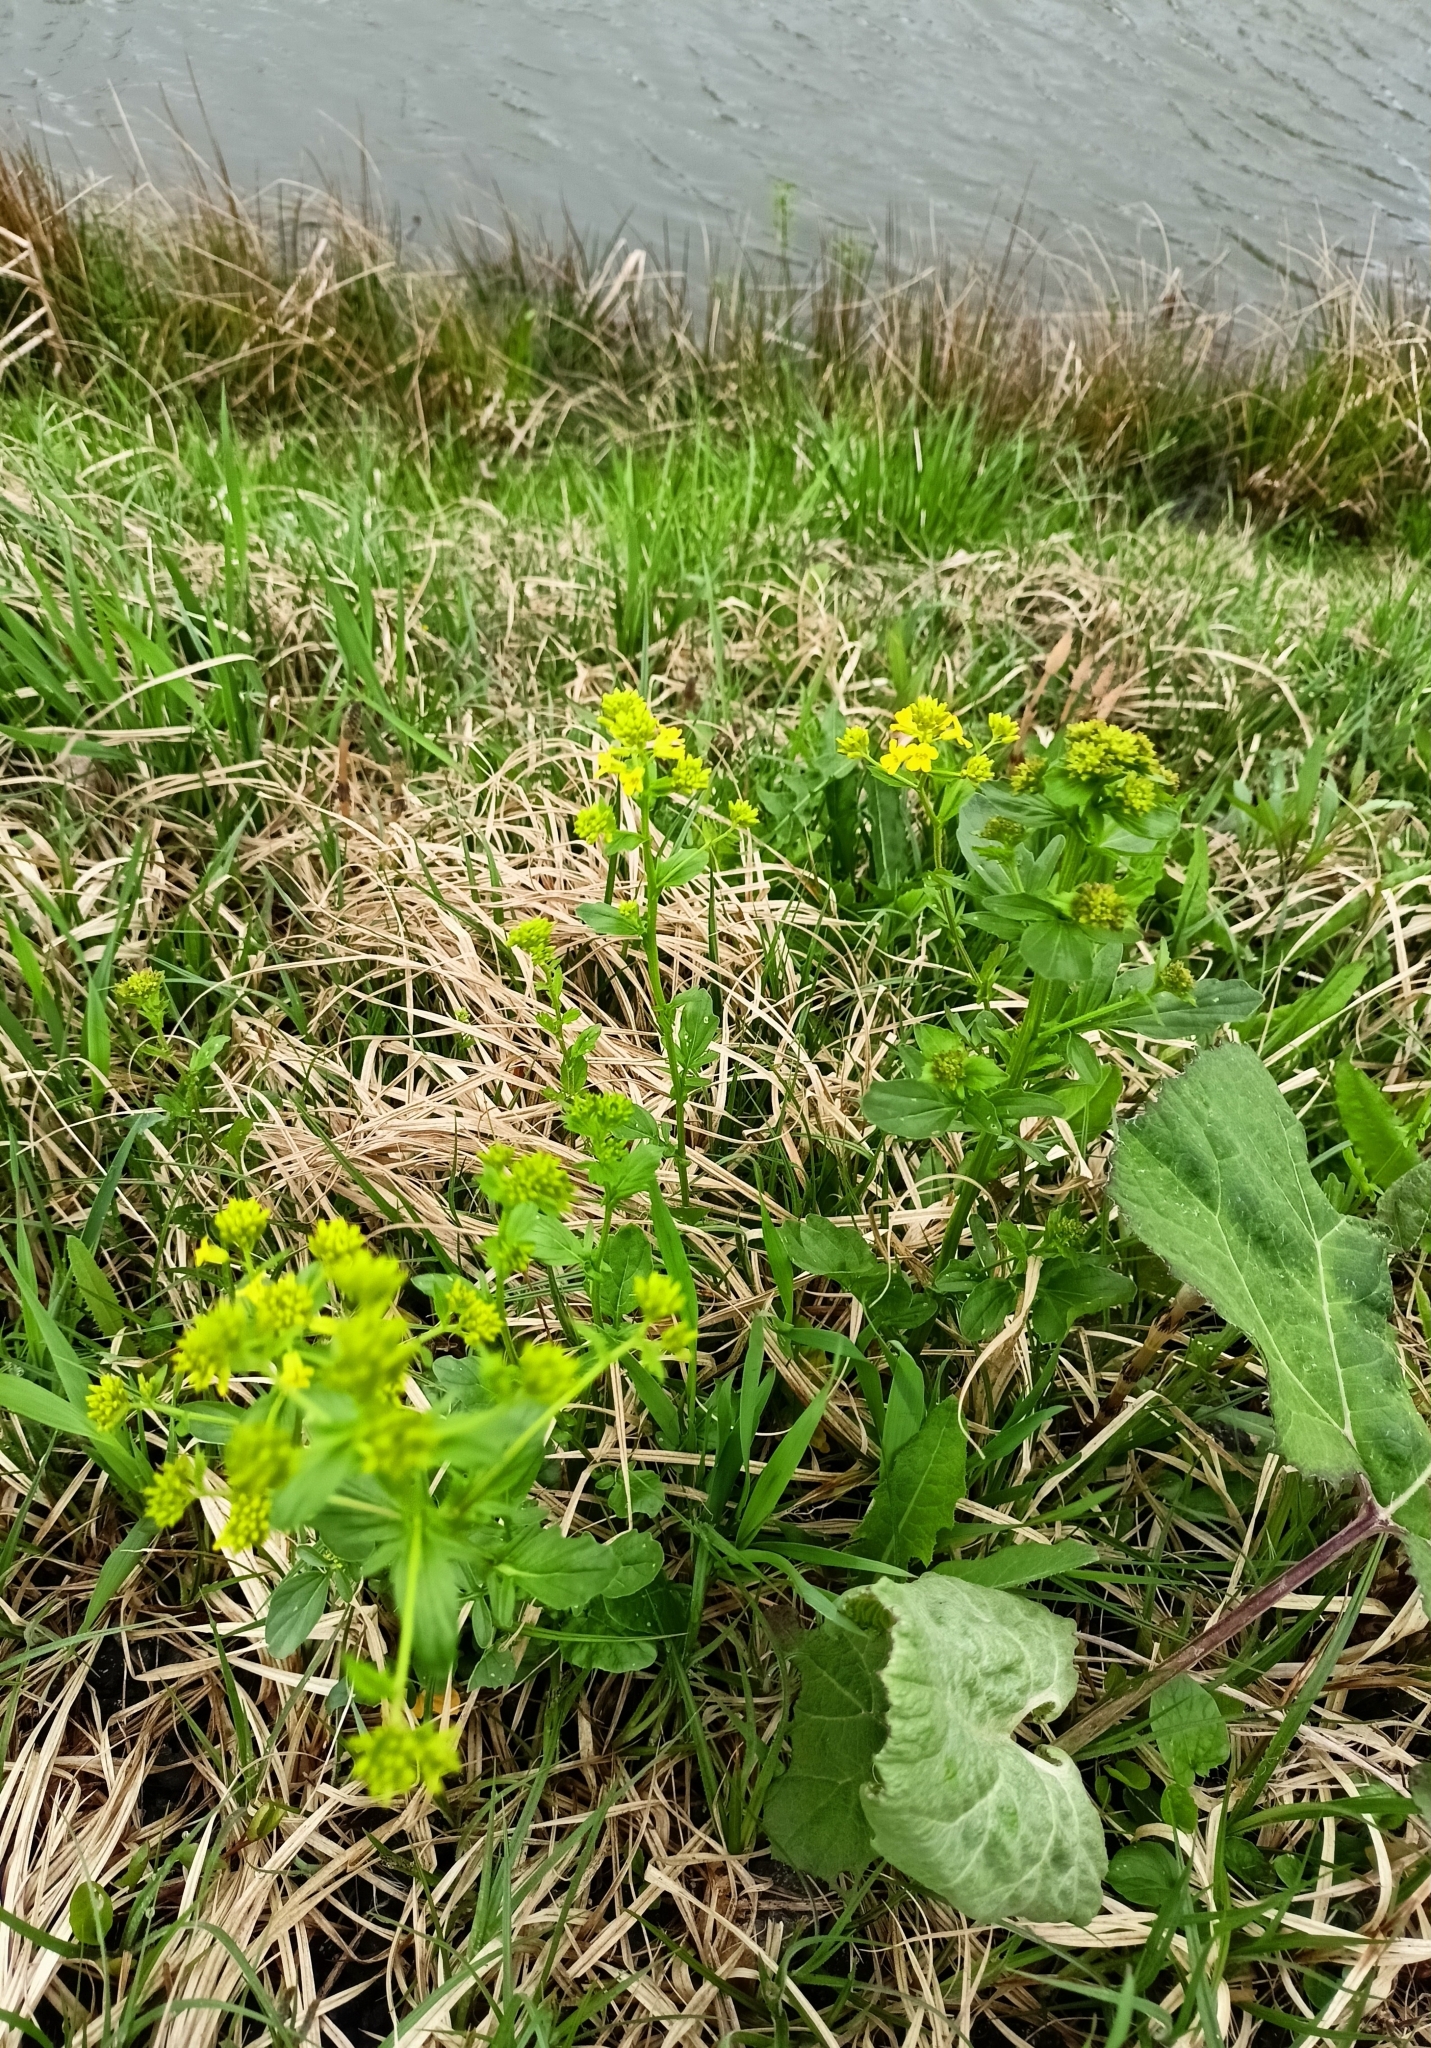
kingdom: Plantae
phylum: Tracheophyta
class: Magnoliopsida
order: Brassicales
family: Brassicaceae
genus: Barbarea
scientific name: Barbarea vulgaris
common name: Cressy-greens
